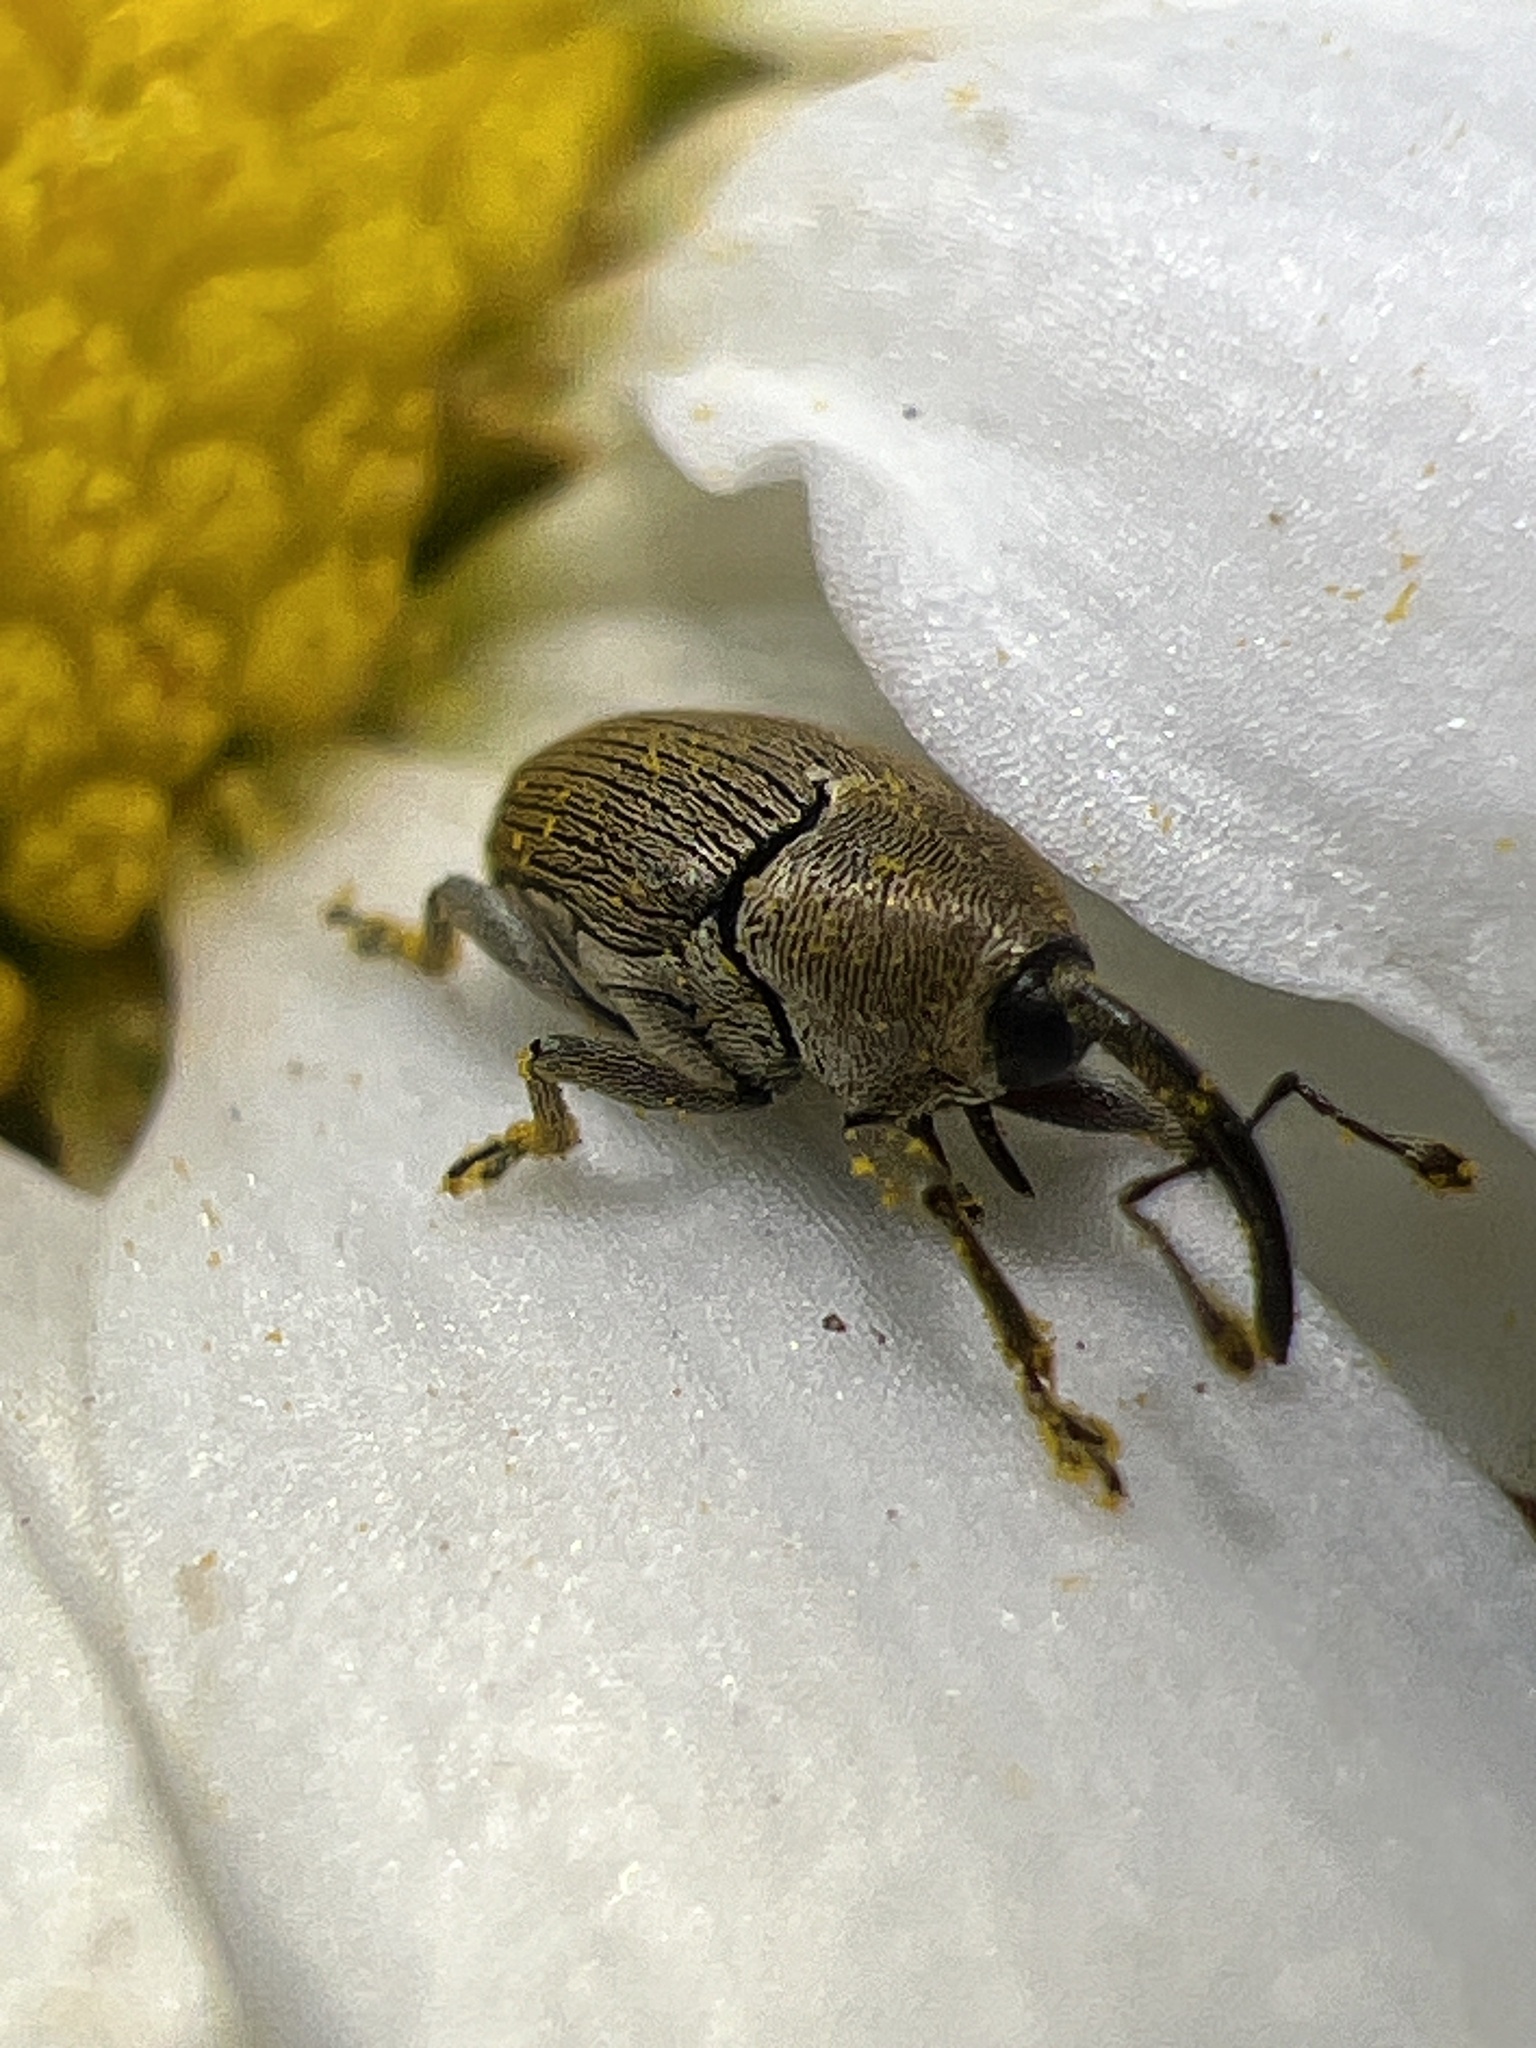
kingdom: Animalia
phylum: Arthropoda
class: Insecta
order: Coleoptera
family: Curculionidae
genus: Geraeus
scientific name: Geraeus picumnus
